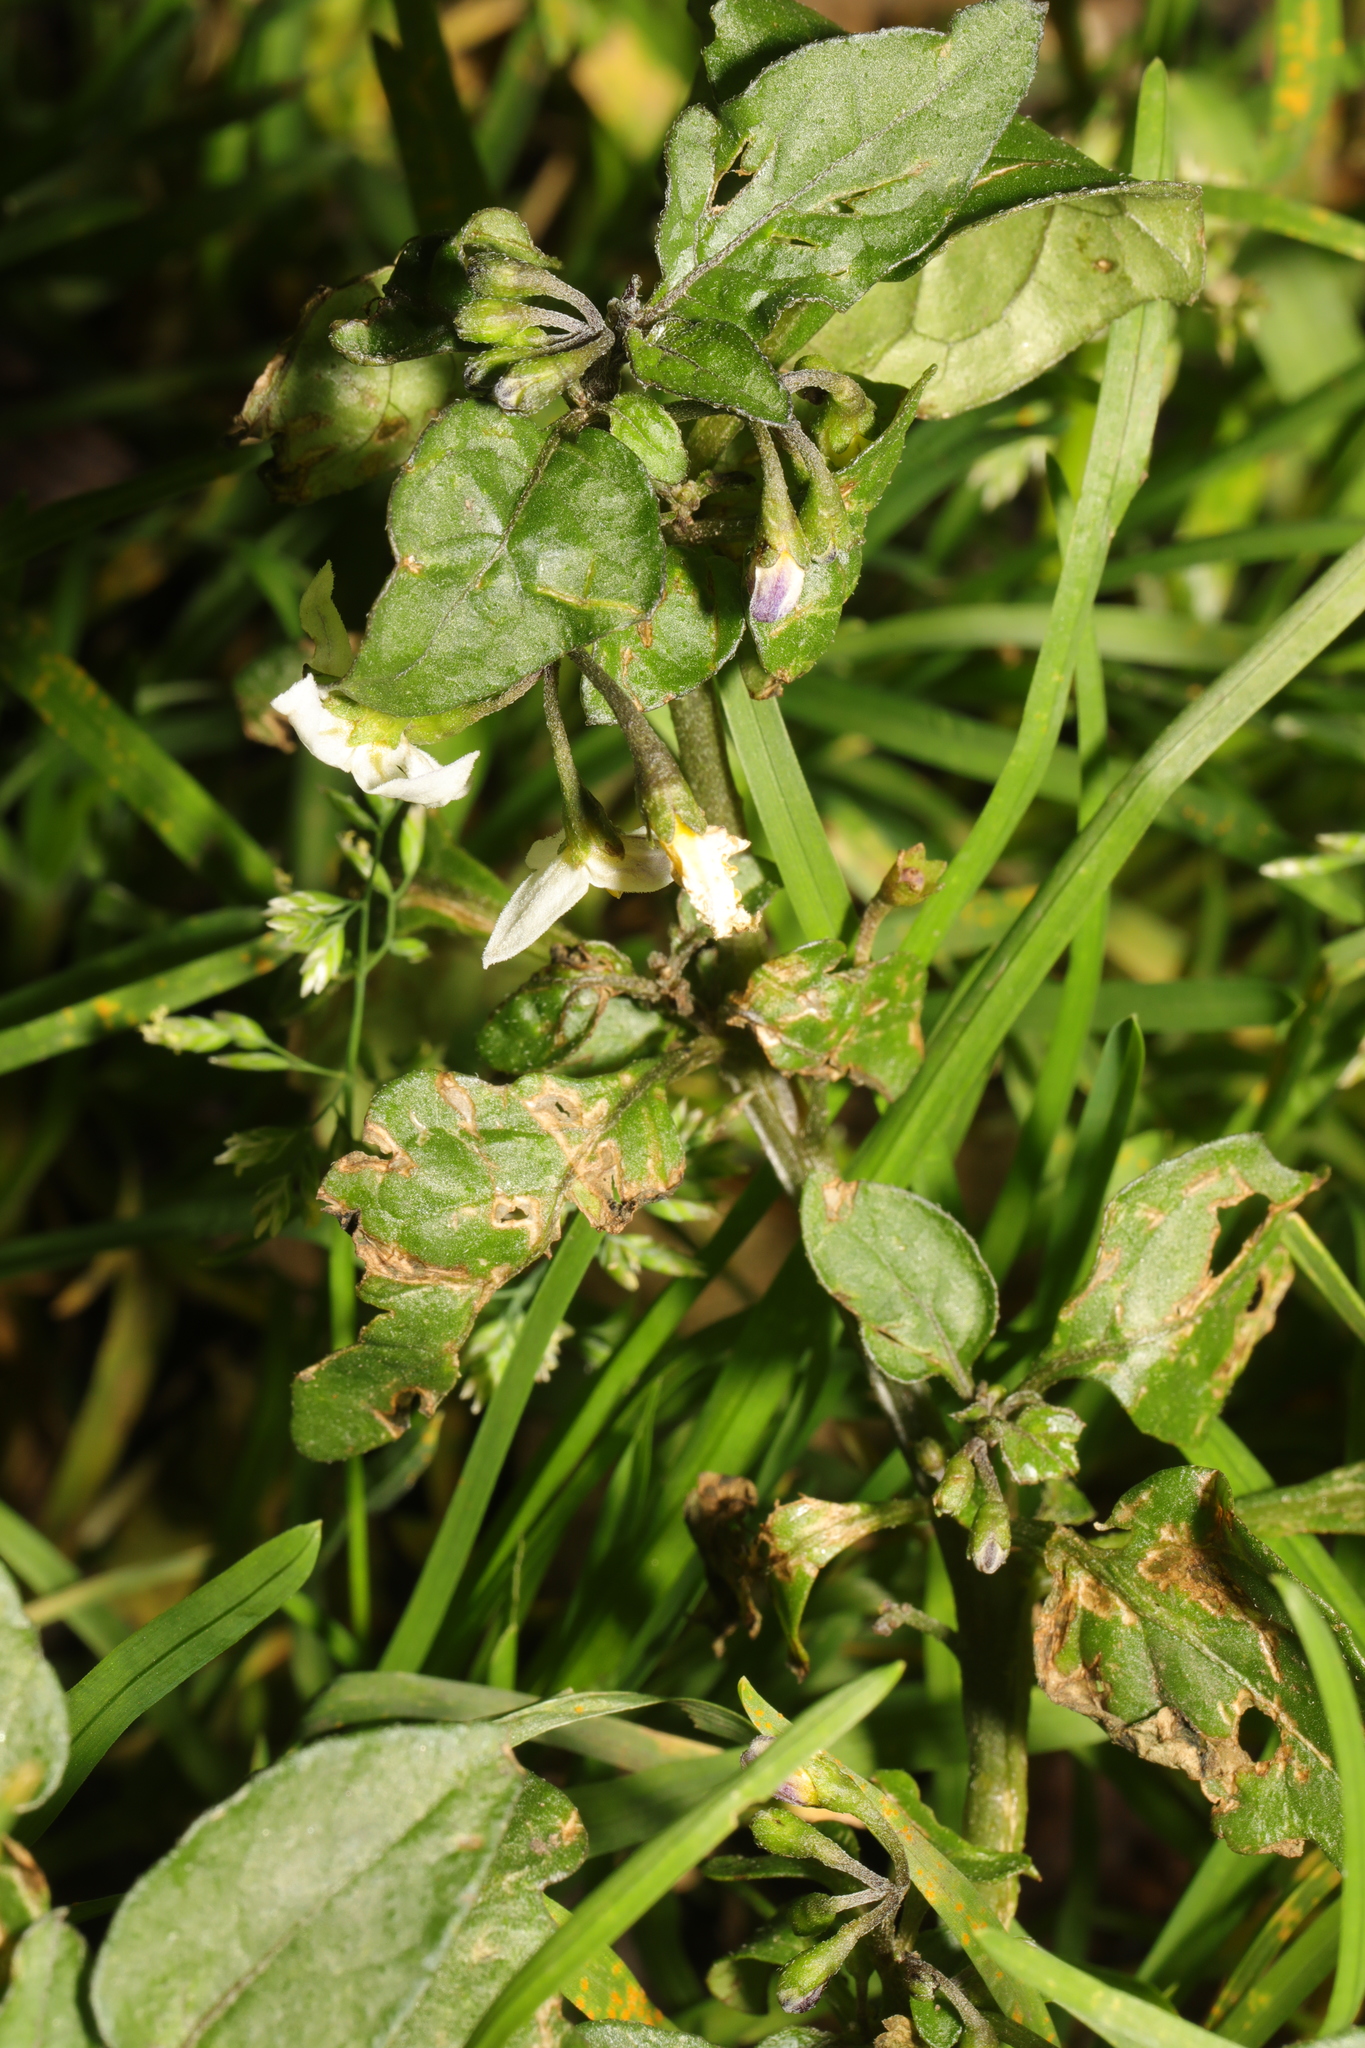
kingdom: Plantae
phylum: Tracheophyta
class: Magnoliopsida
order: Solanales
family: Solanaceae
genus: Solanum
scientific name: Solanum nigrum
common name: Black nightshade
